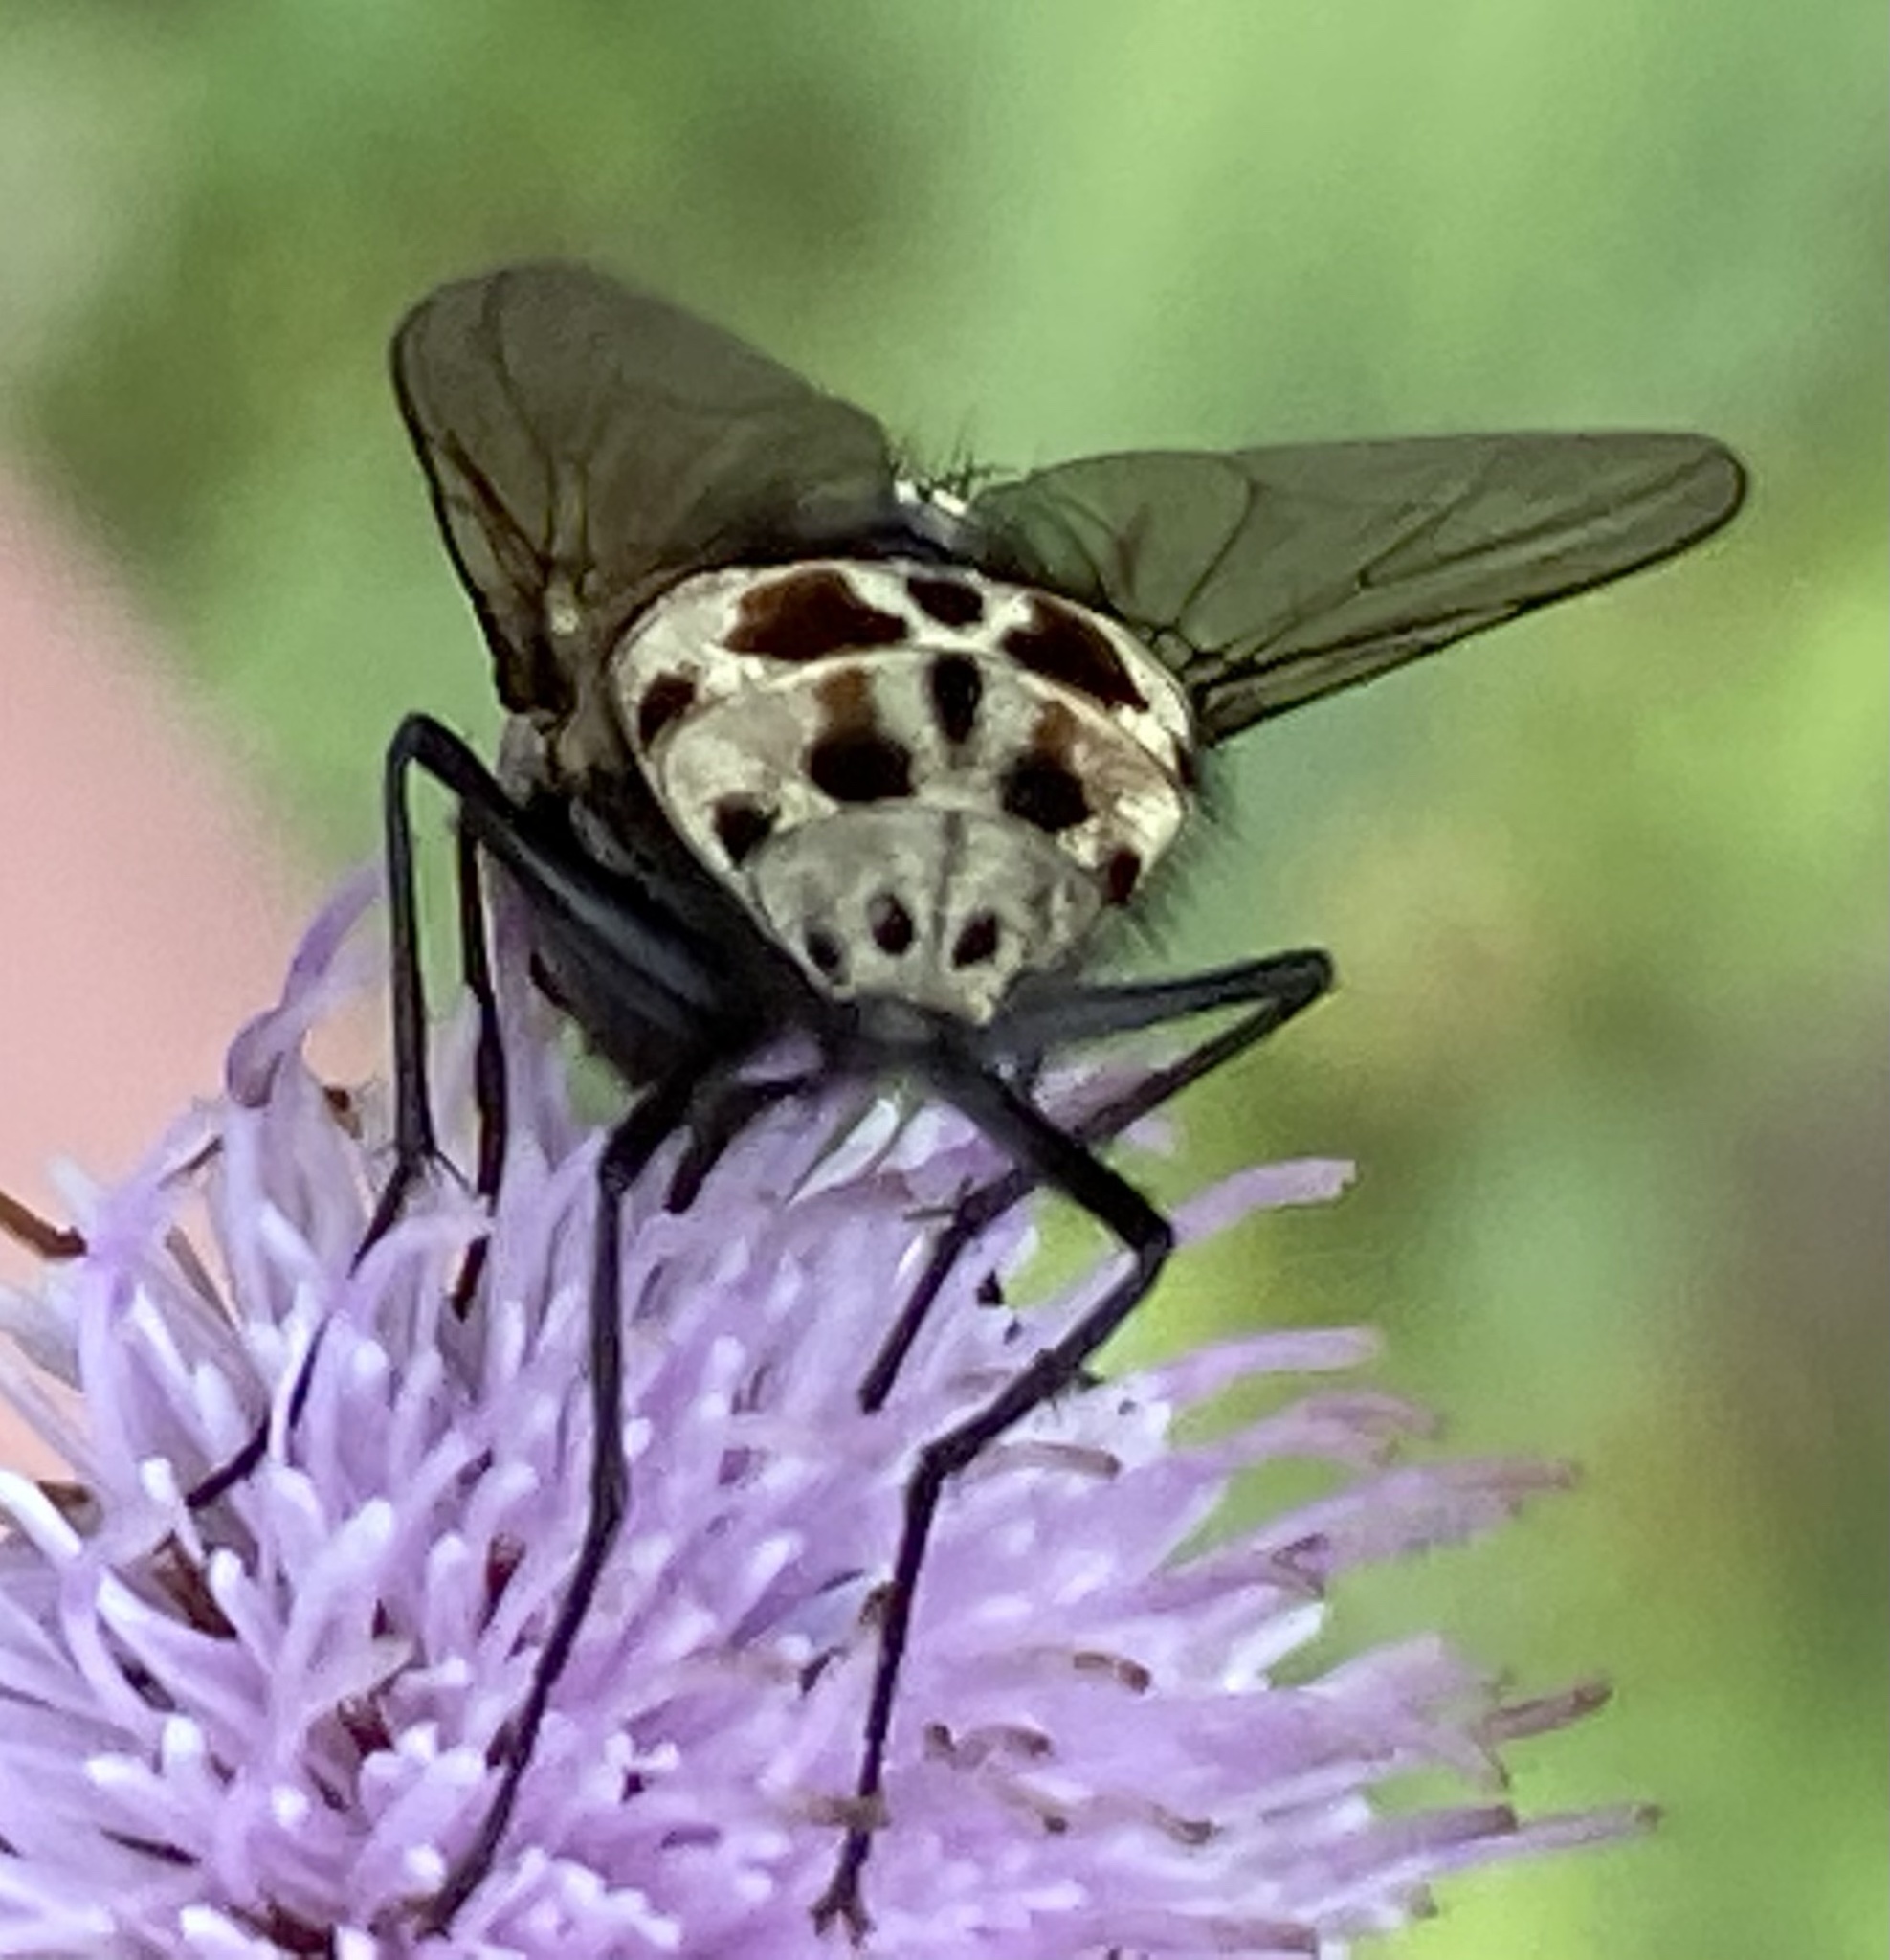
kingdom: Animalia
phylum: Arthropoda
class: Insecta
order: Diptera
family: Muscidae
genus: Graphomya
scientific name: Graphomya maculata
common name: Muscid fly
